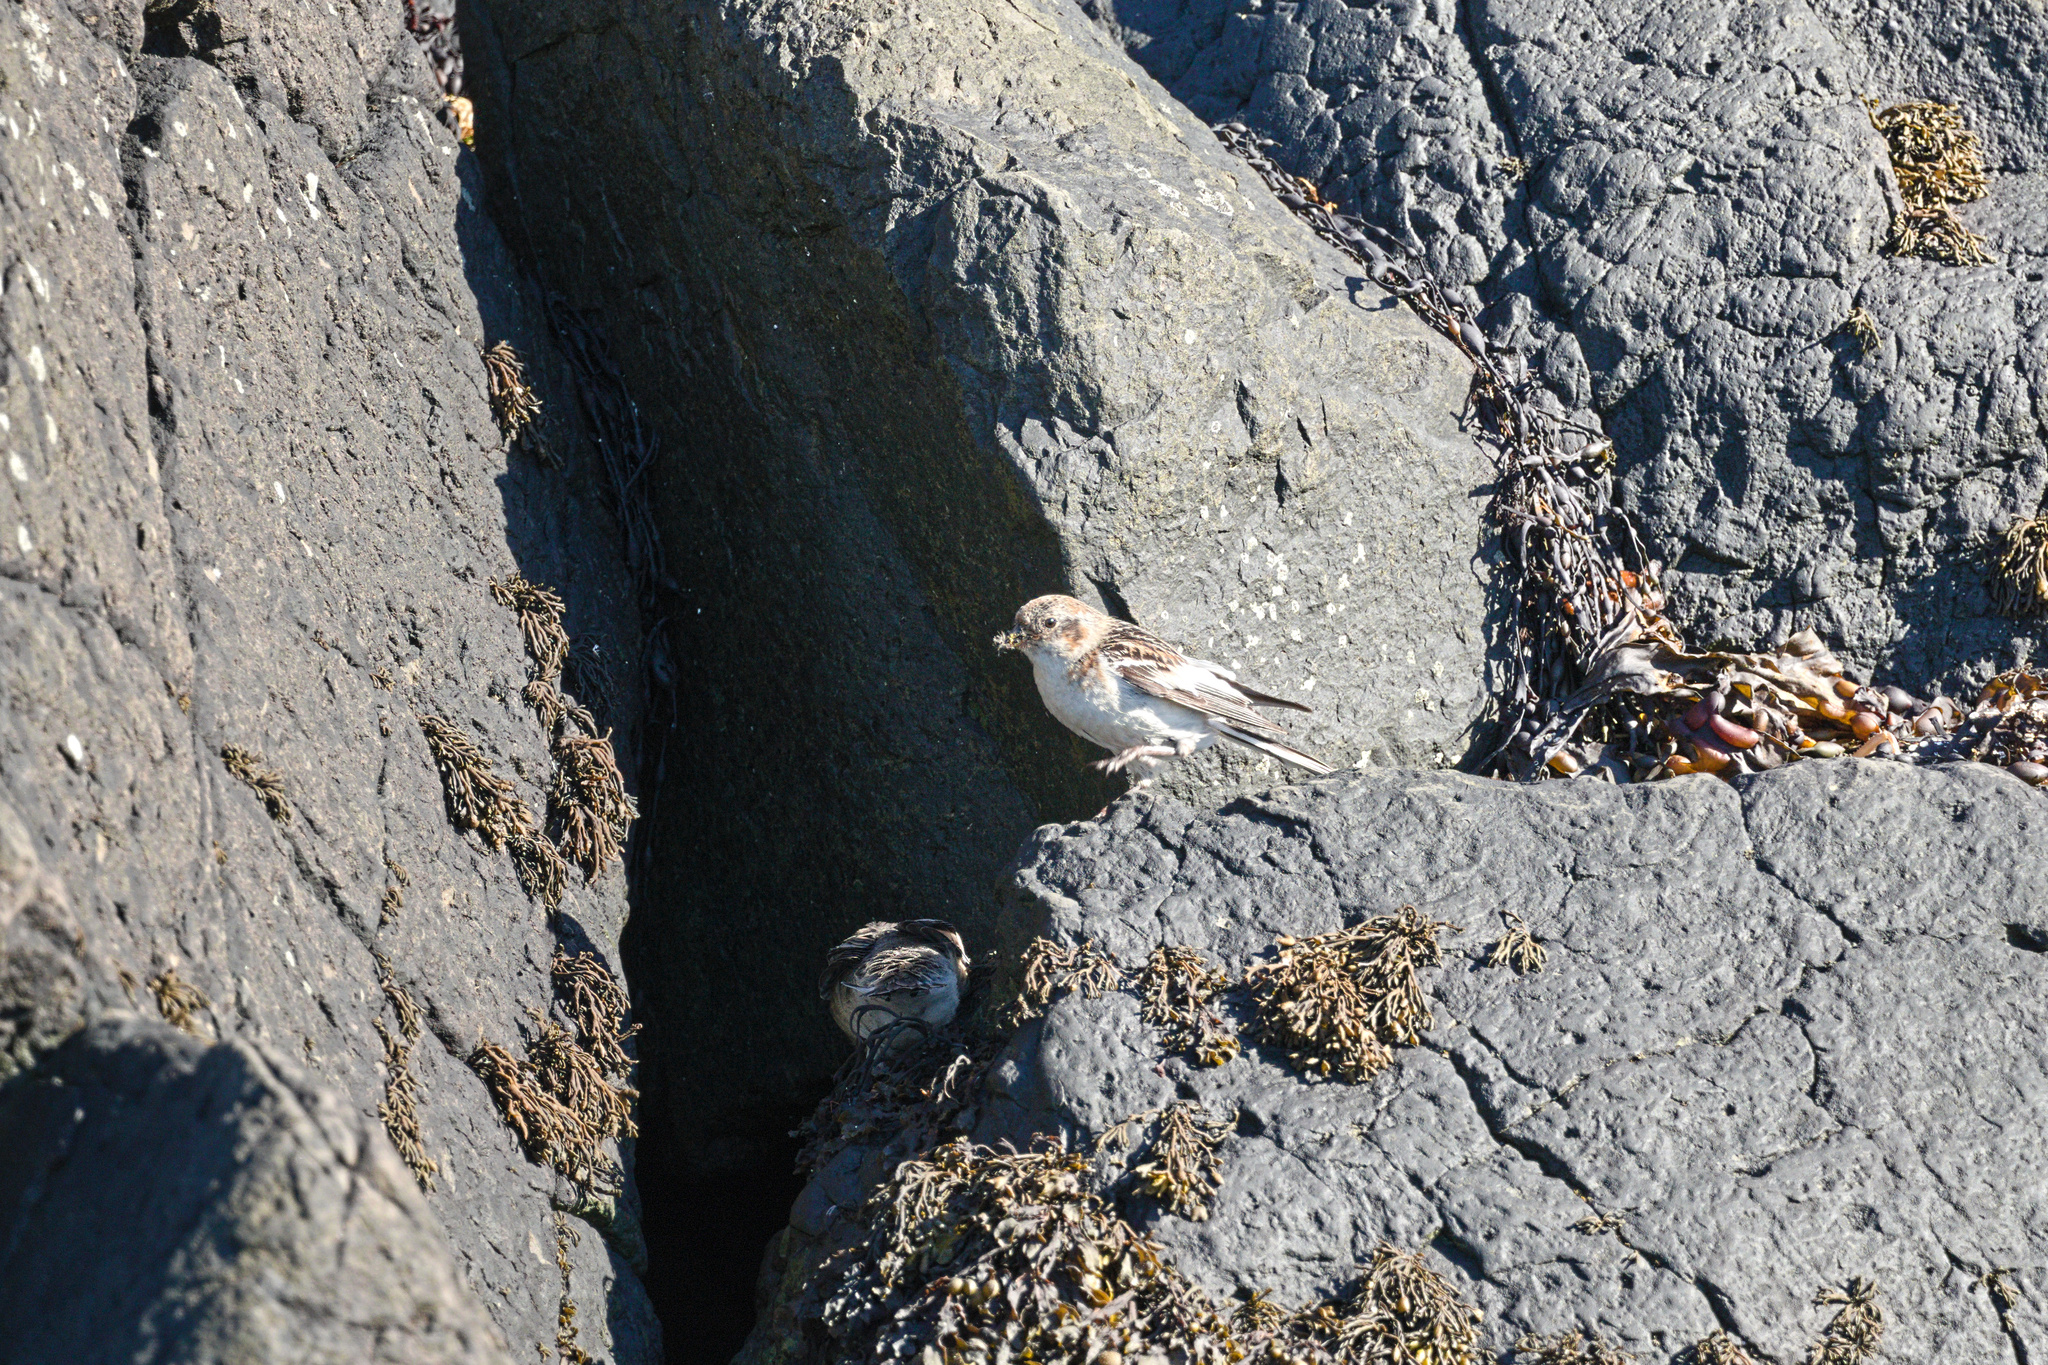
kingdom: Animalia
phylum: Chordata
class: Aves
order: Passeriformes
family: Calcariidae
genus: Plectrophenax
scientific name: Plectrophenax nivalis
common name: Snow bunting
